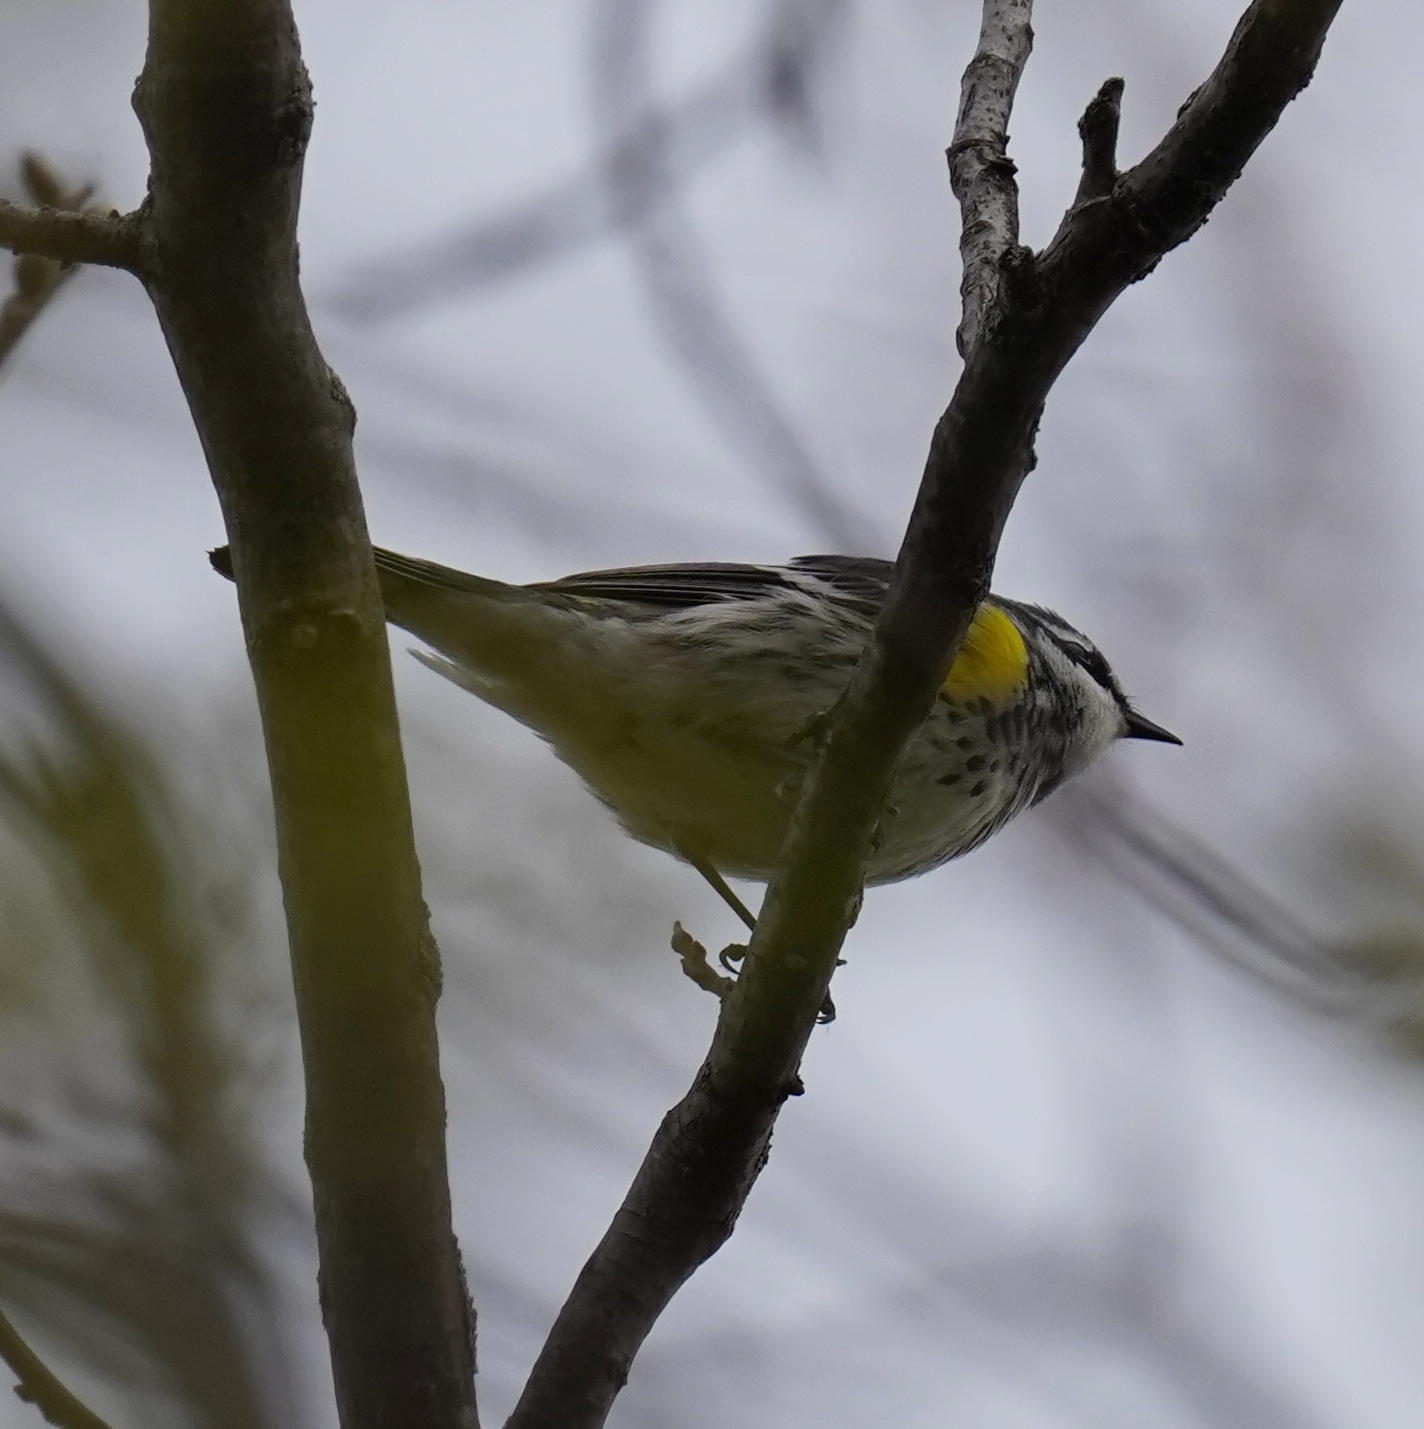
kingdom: Animalia
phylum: Chordata
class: Aves
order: Passeriformes
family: Parulidae
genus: Setophaga
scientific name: Setophaga coronata
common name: Myrtle warbler
